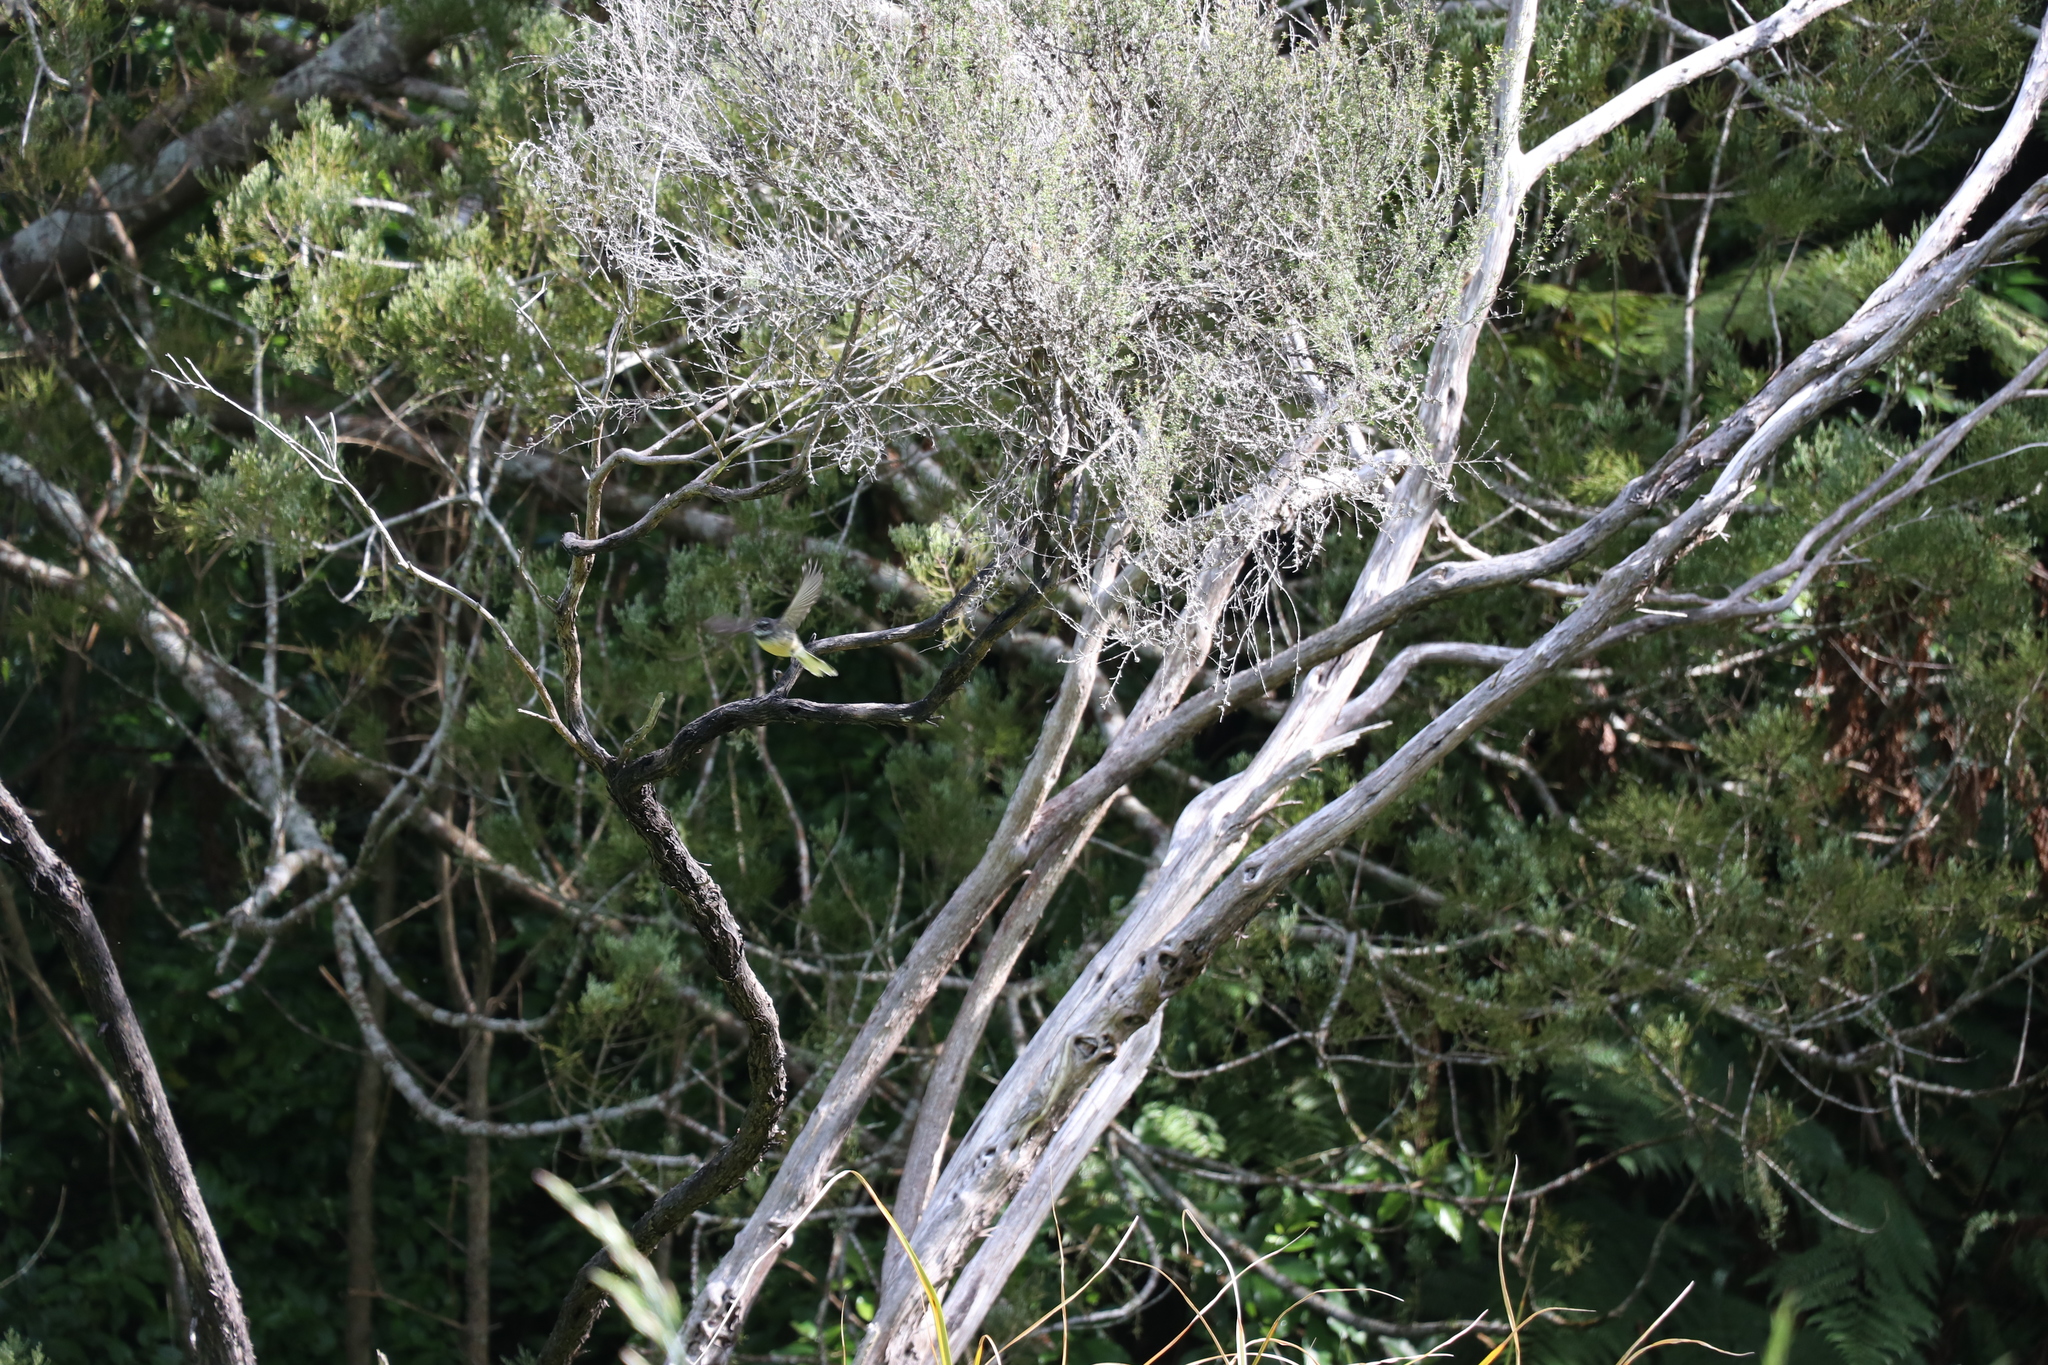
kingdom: Animalia
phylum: Chordata
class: Aves
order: Passeriformes
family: Rhipiduridae
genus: Rhipidura
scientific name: Rhipidura fuliginosa
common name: New zealand fantail
